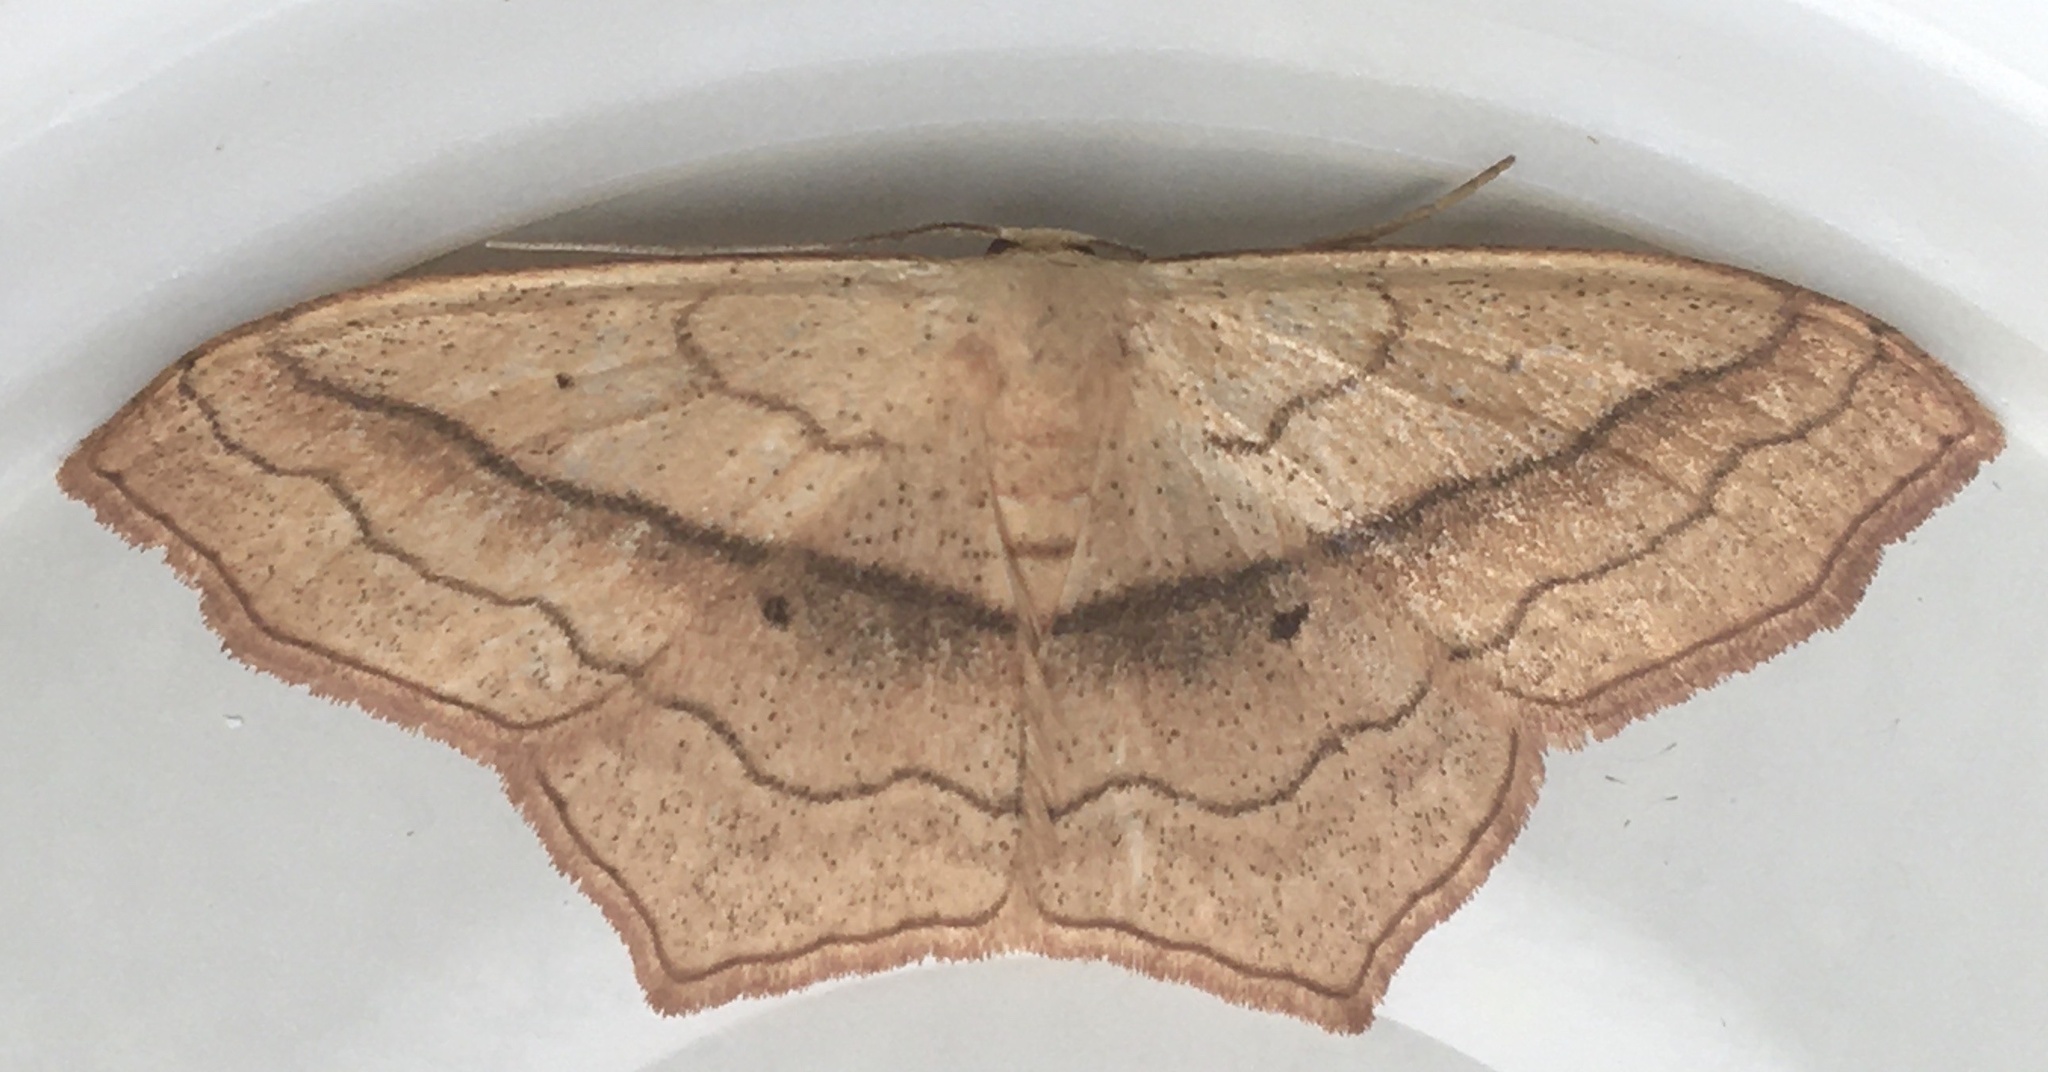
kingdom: Animalia
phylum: Arthropoda
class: Insecta
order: Lepidoptera
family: Geometridae
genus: Scopula
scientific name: Scopula imitaria
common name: Small blood-vein
